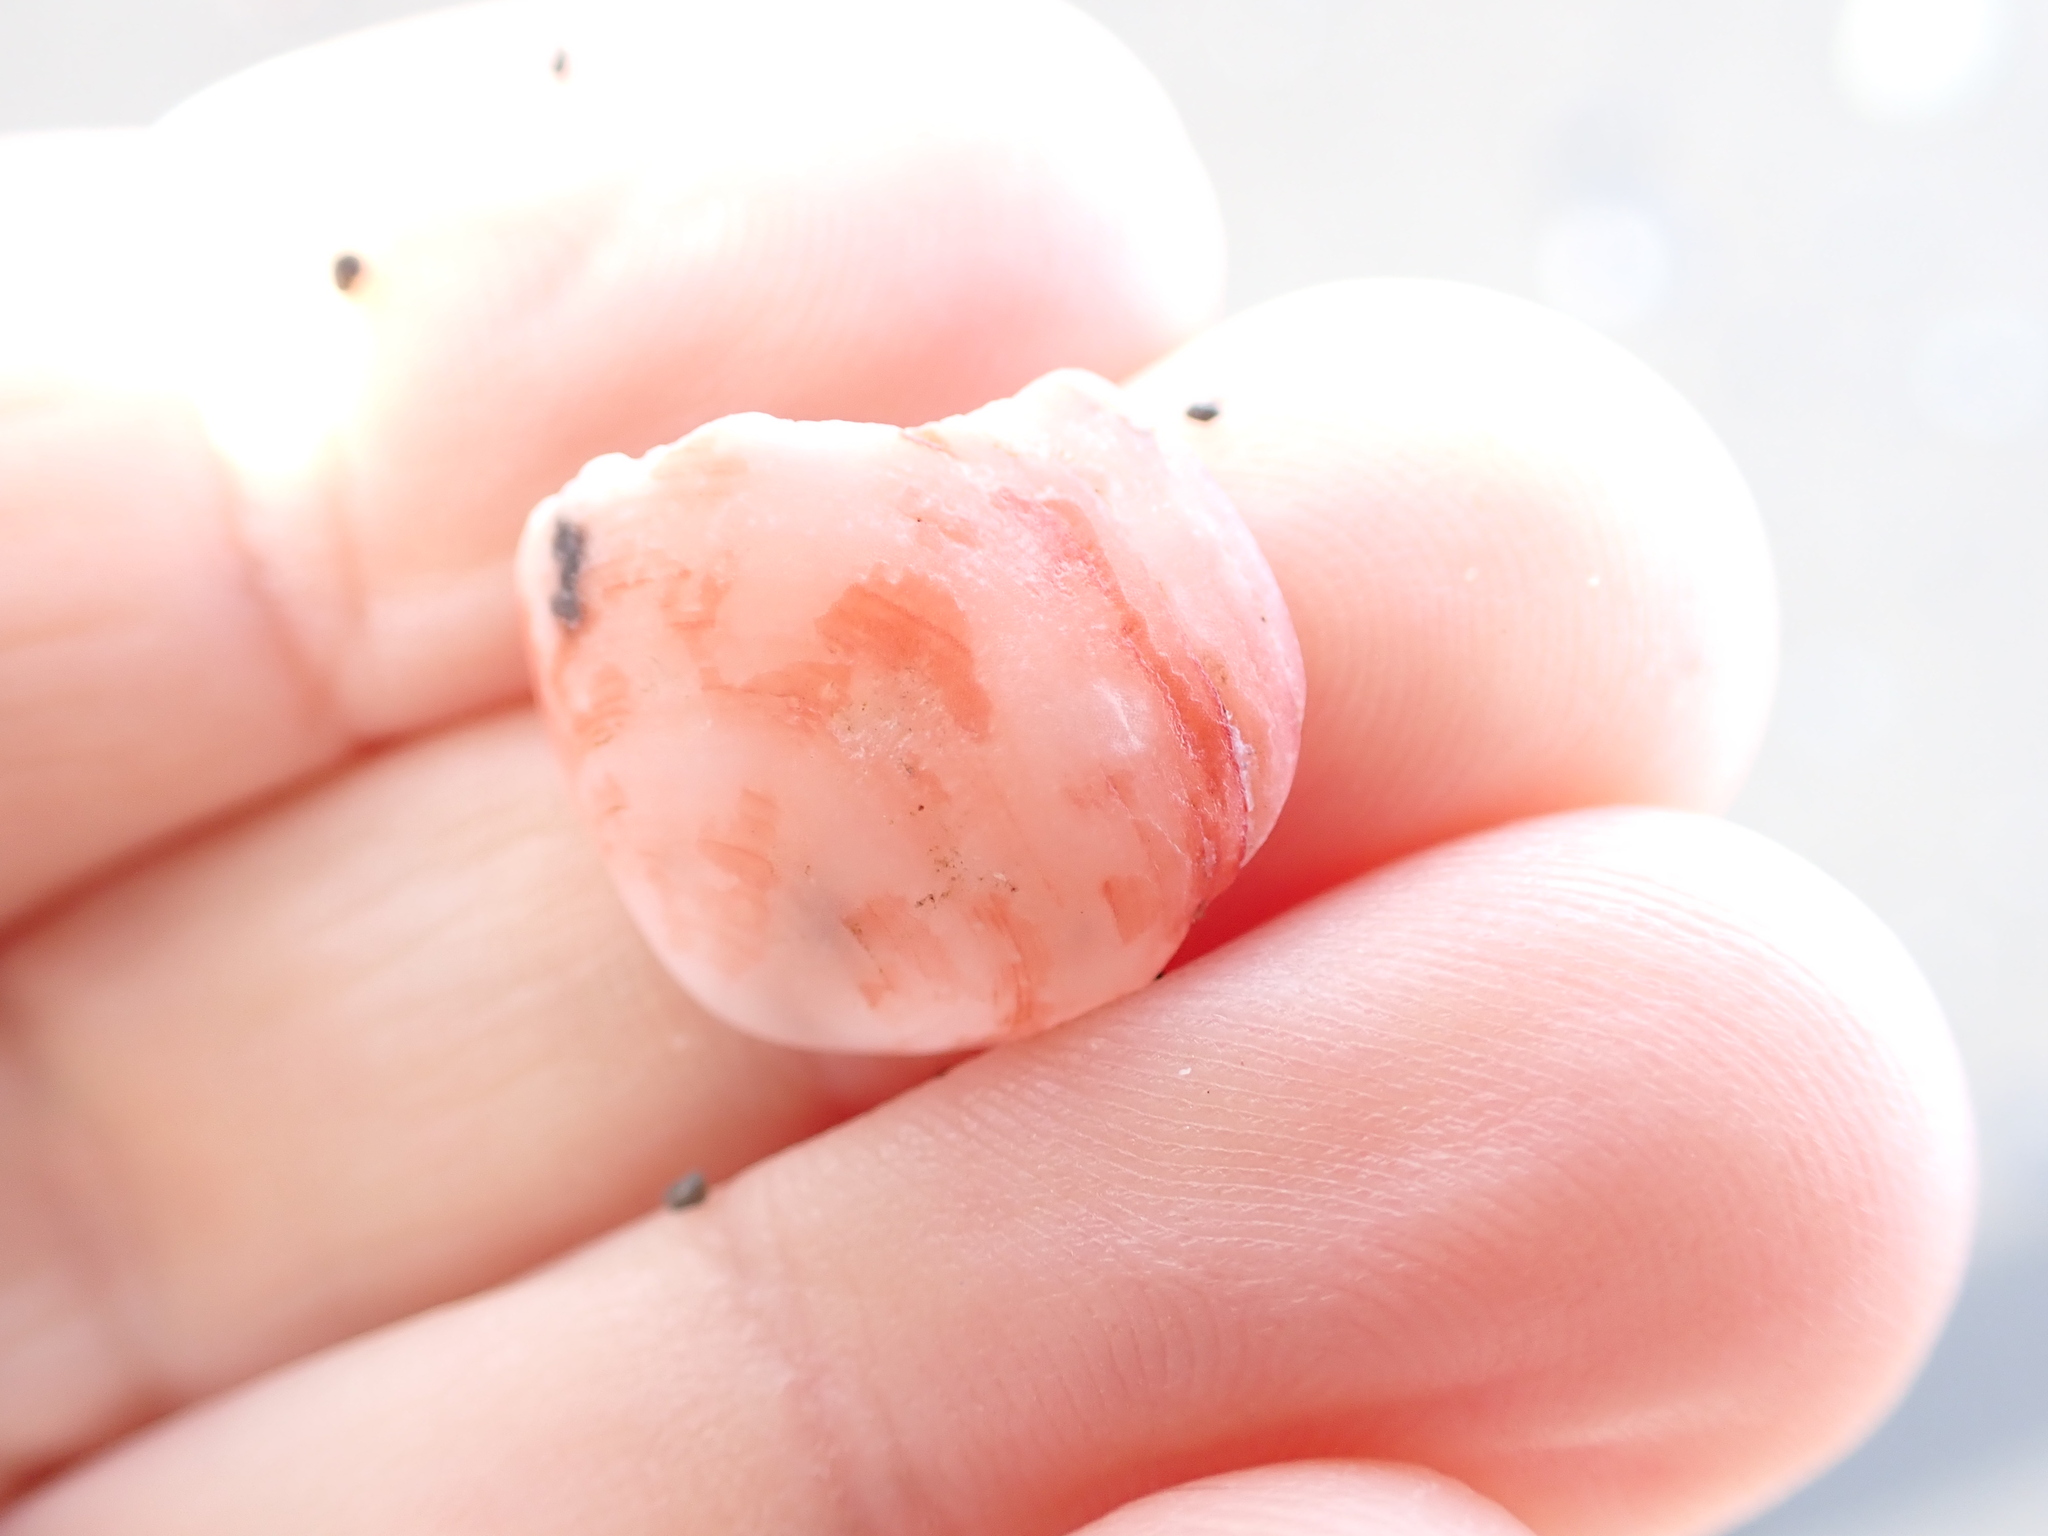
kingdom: Animalia
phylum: Brachiopoda
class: Rhynchonellata
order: Terebratulida
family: Terebratellidae
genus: Calloria
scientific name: Calloria inconspicua
